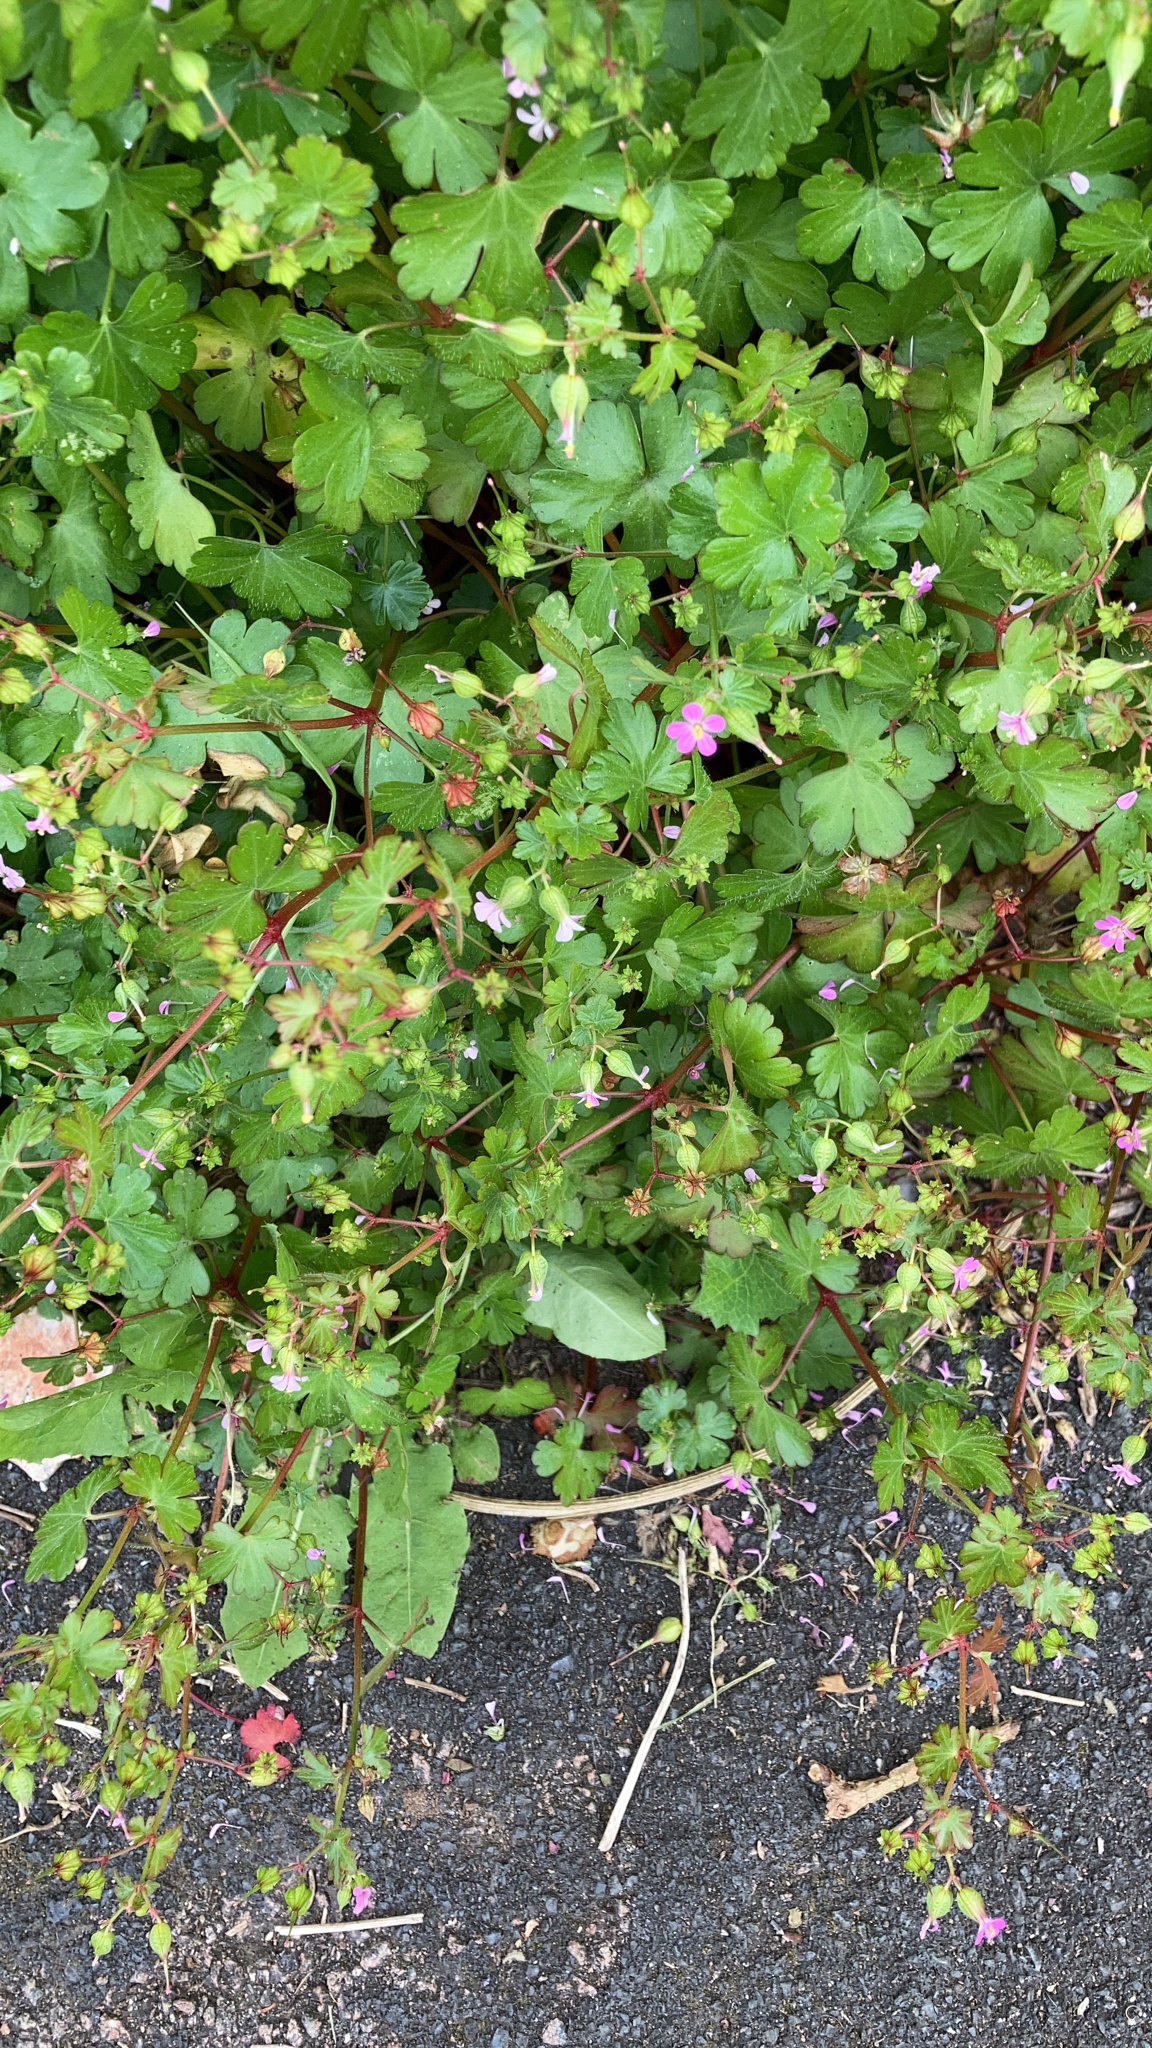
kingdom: Plantae
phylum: Tracheophyta
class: Magnoliopsida
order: Geraniales
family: Geraniaceae
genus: Geranium
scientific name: Geranium lucidum
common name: Shining crane's-bill
